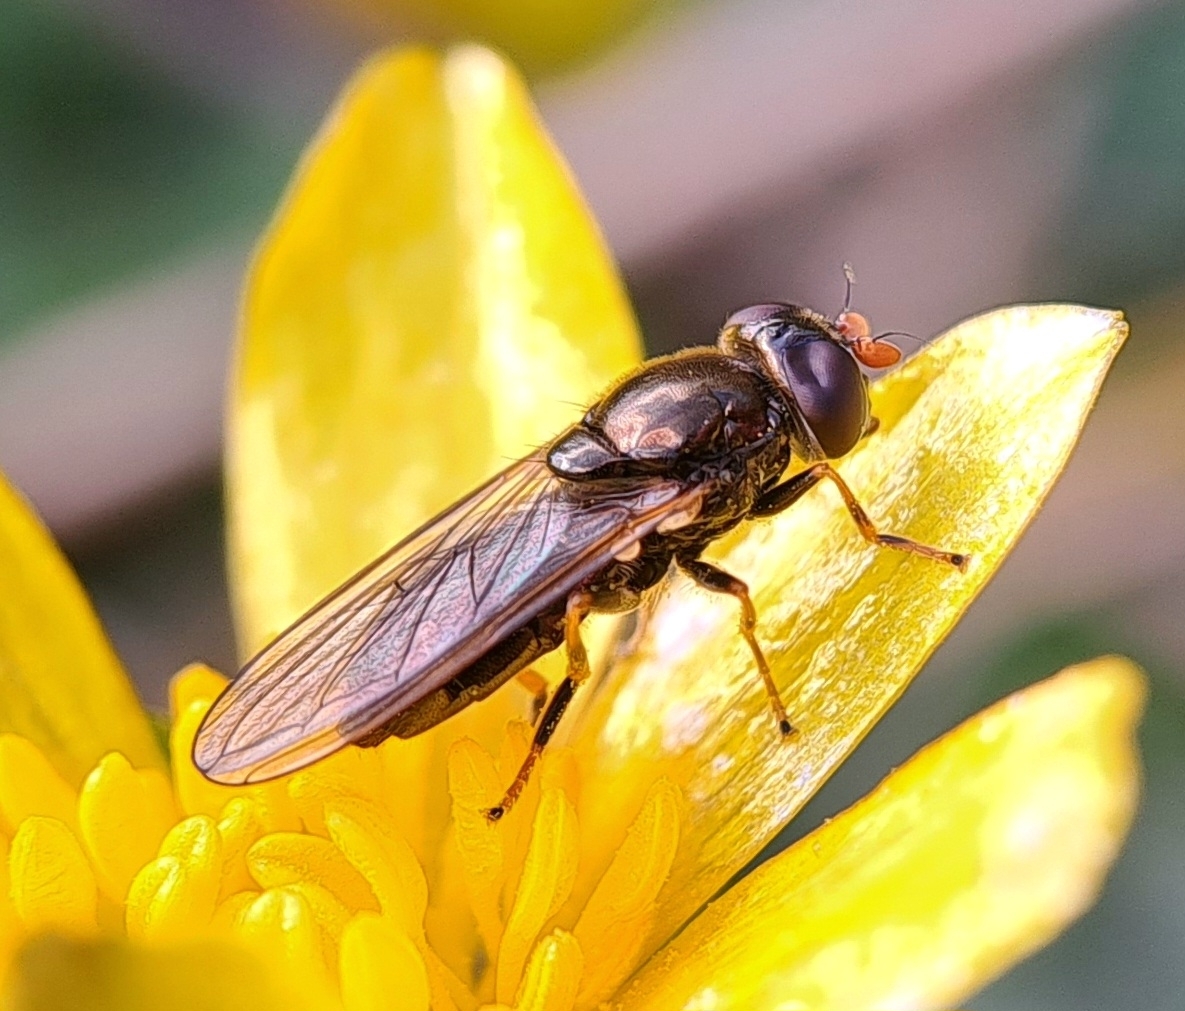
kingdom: Animalia
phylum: Arthropoda
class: Insecta
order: Diptera
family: Syrphidae
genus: Cheilosia
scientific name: Cheilosia pagana
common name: Hover fly
